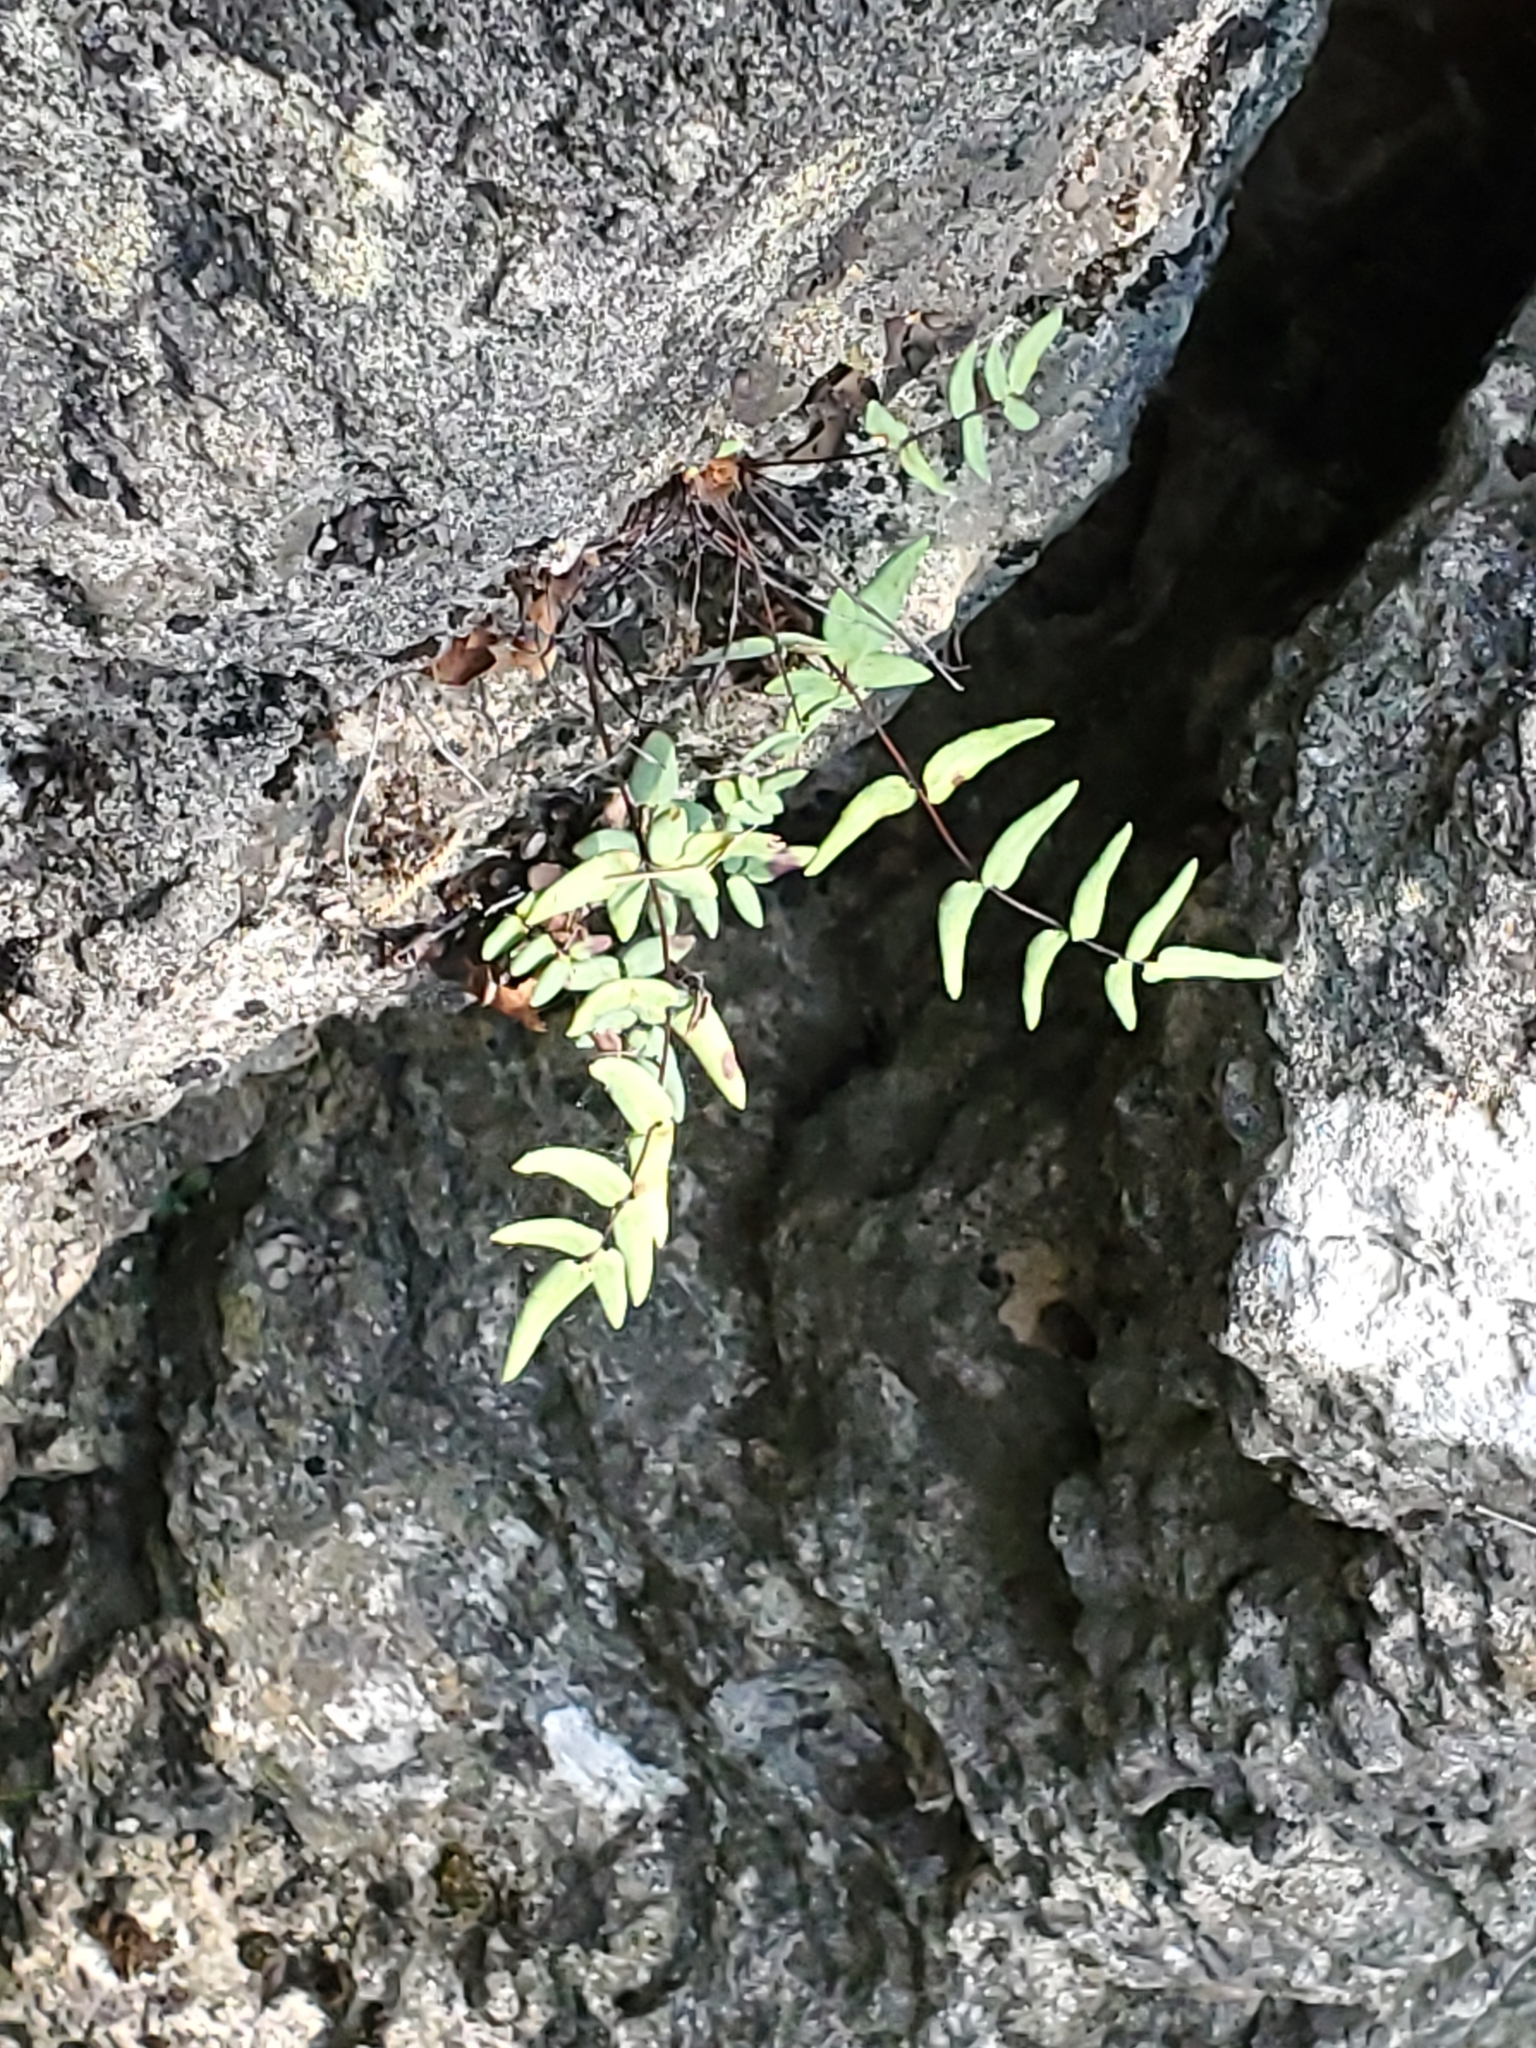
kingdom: Plantae
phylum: Tracheophyta
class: Polypodiopsida
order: Polypodiales
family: Pteridaceae
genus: Pellaea
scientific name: Pellaea glabella
